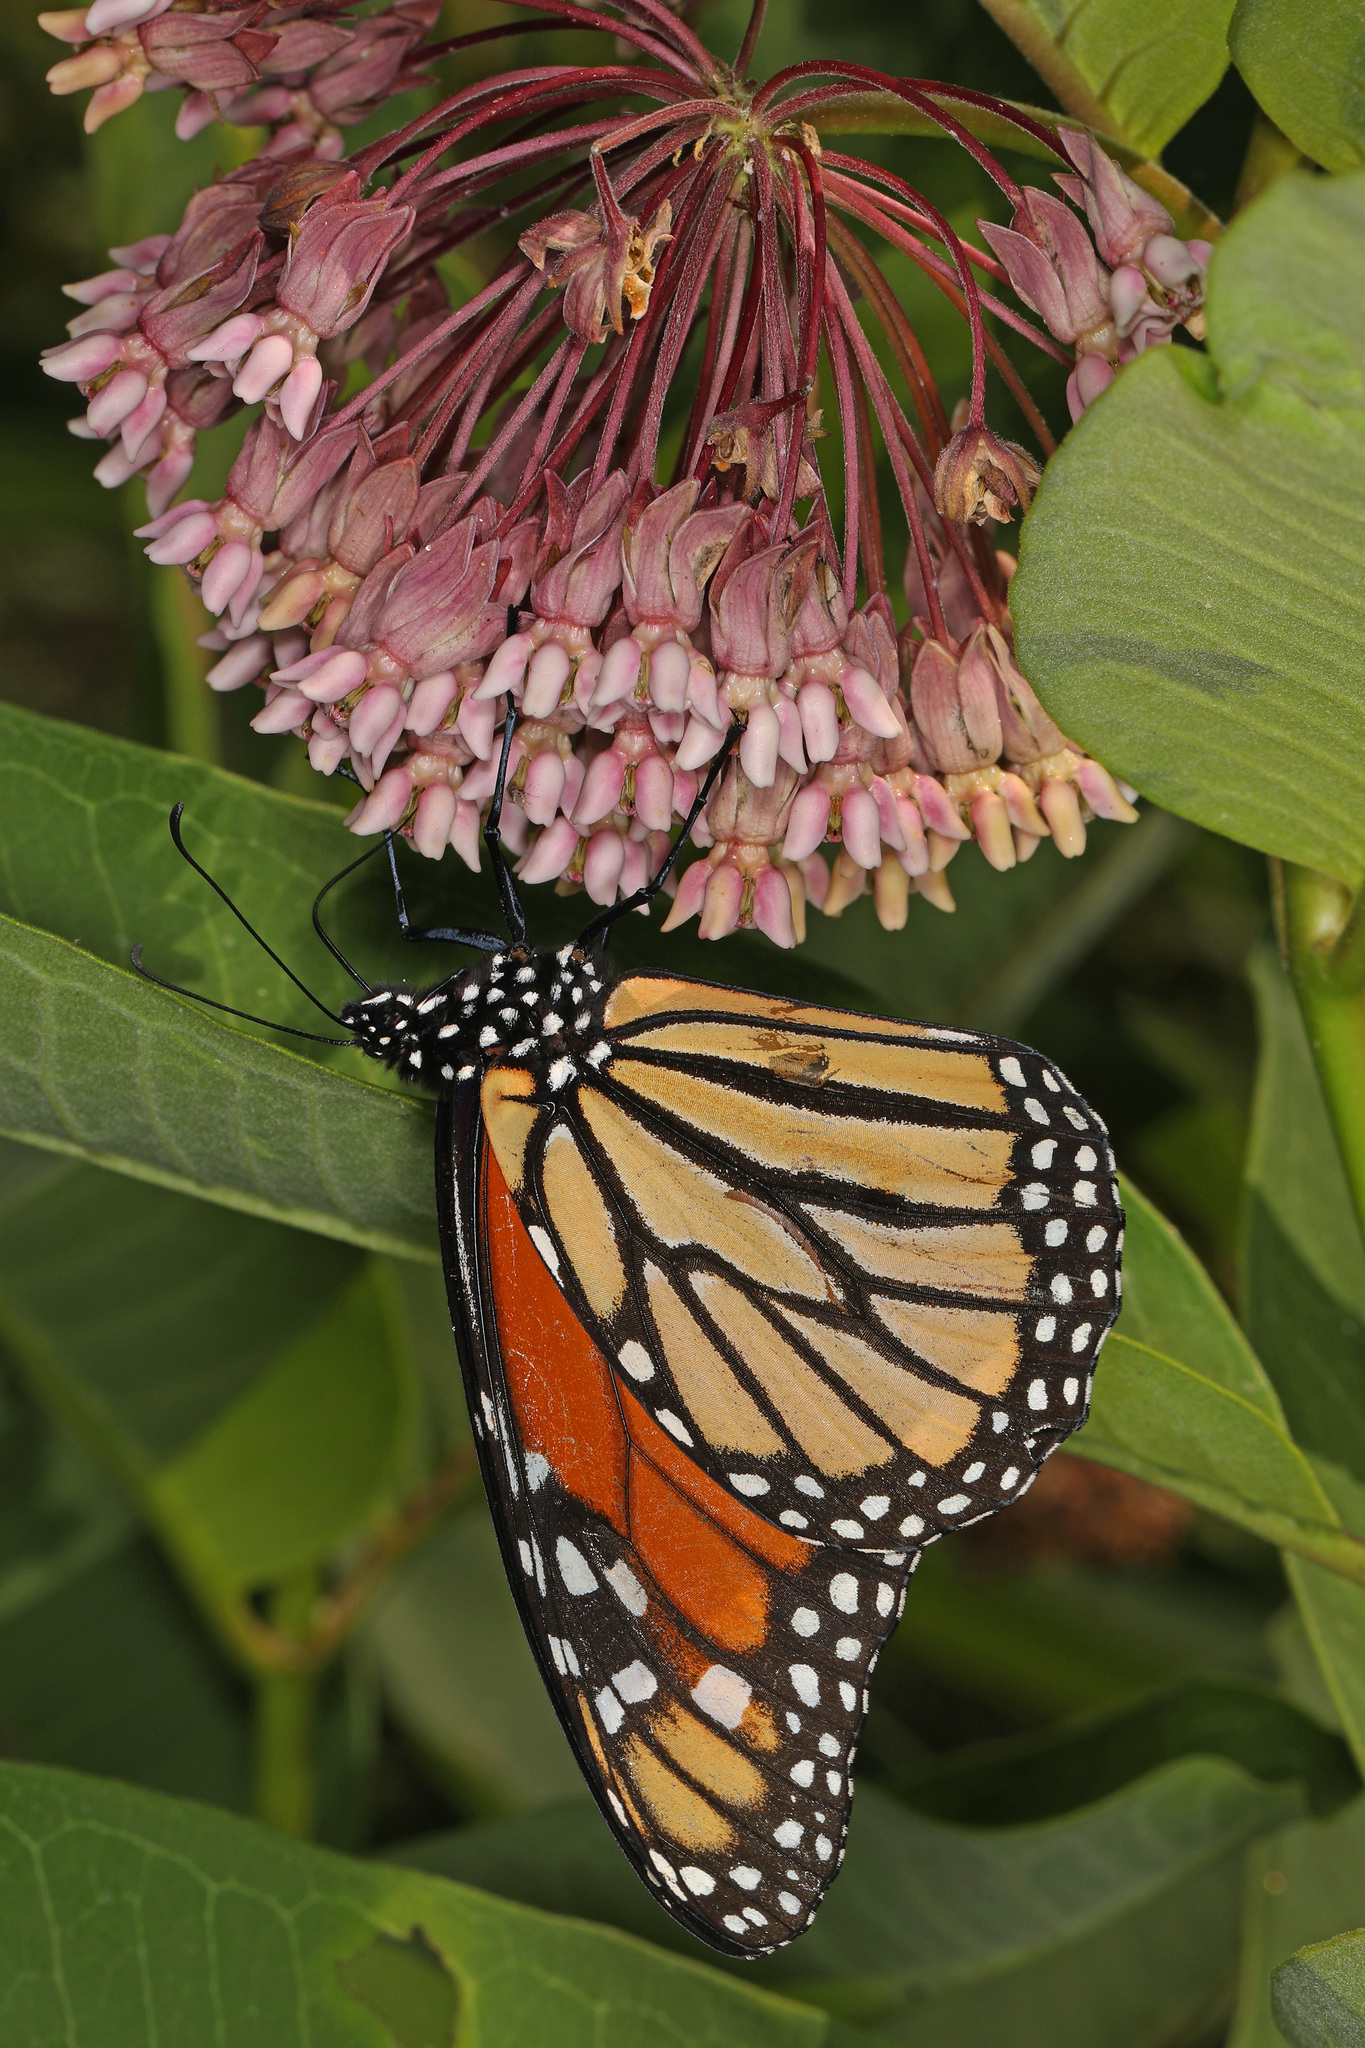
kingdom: Animalia
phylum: Arthropoda
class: Insecta
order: Lepidoptera
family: Nymphalidae
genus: Danaus
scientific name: Danaus plexippus
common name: Monarch
